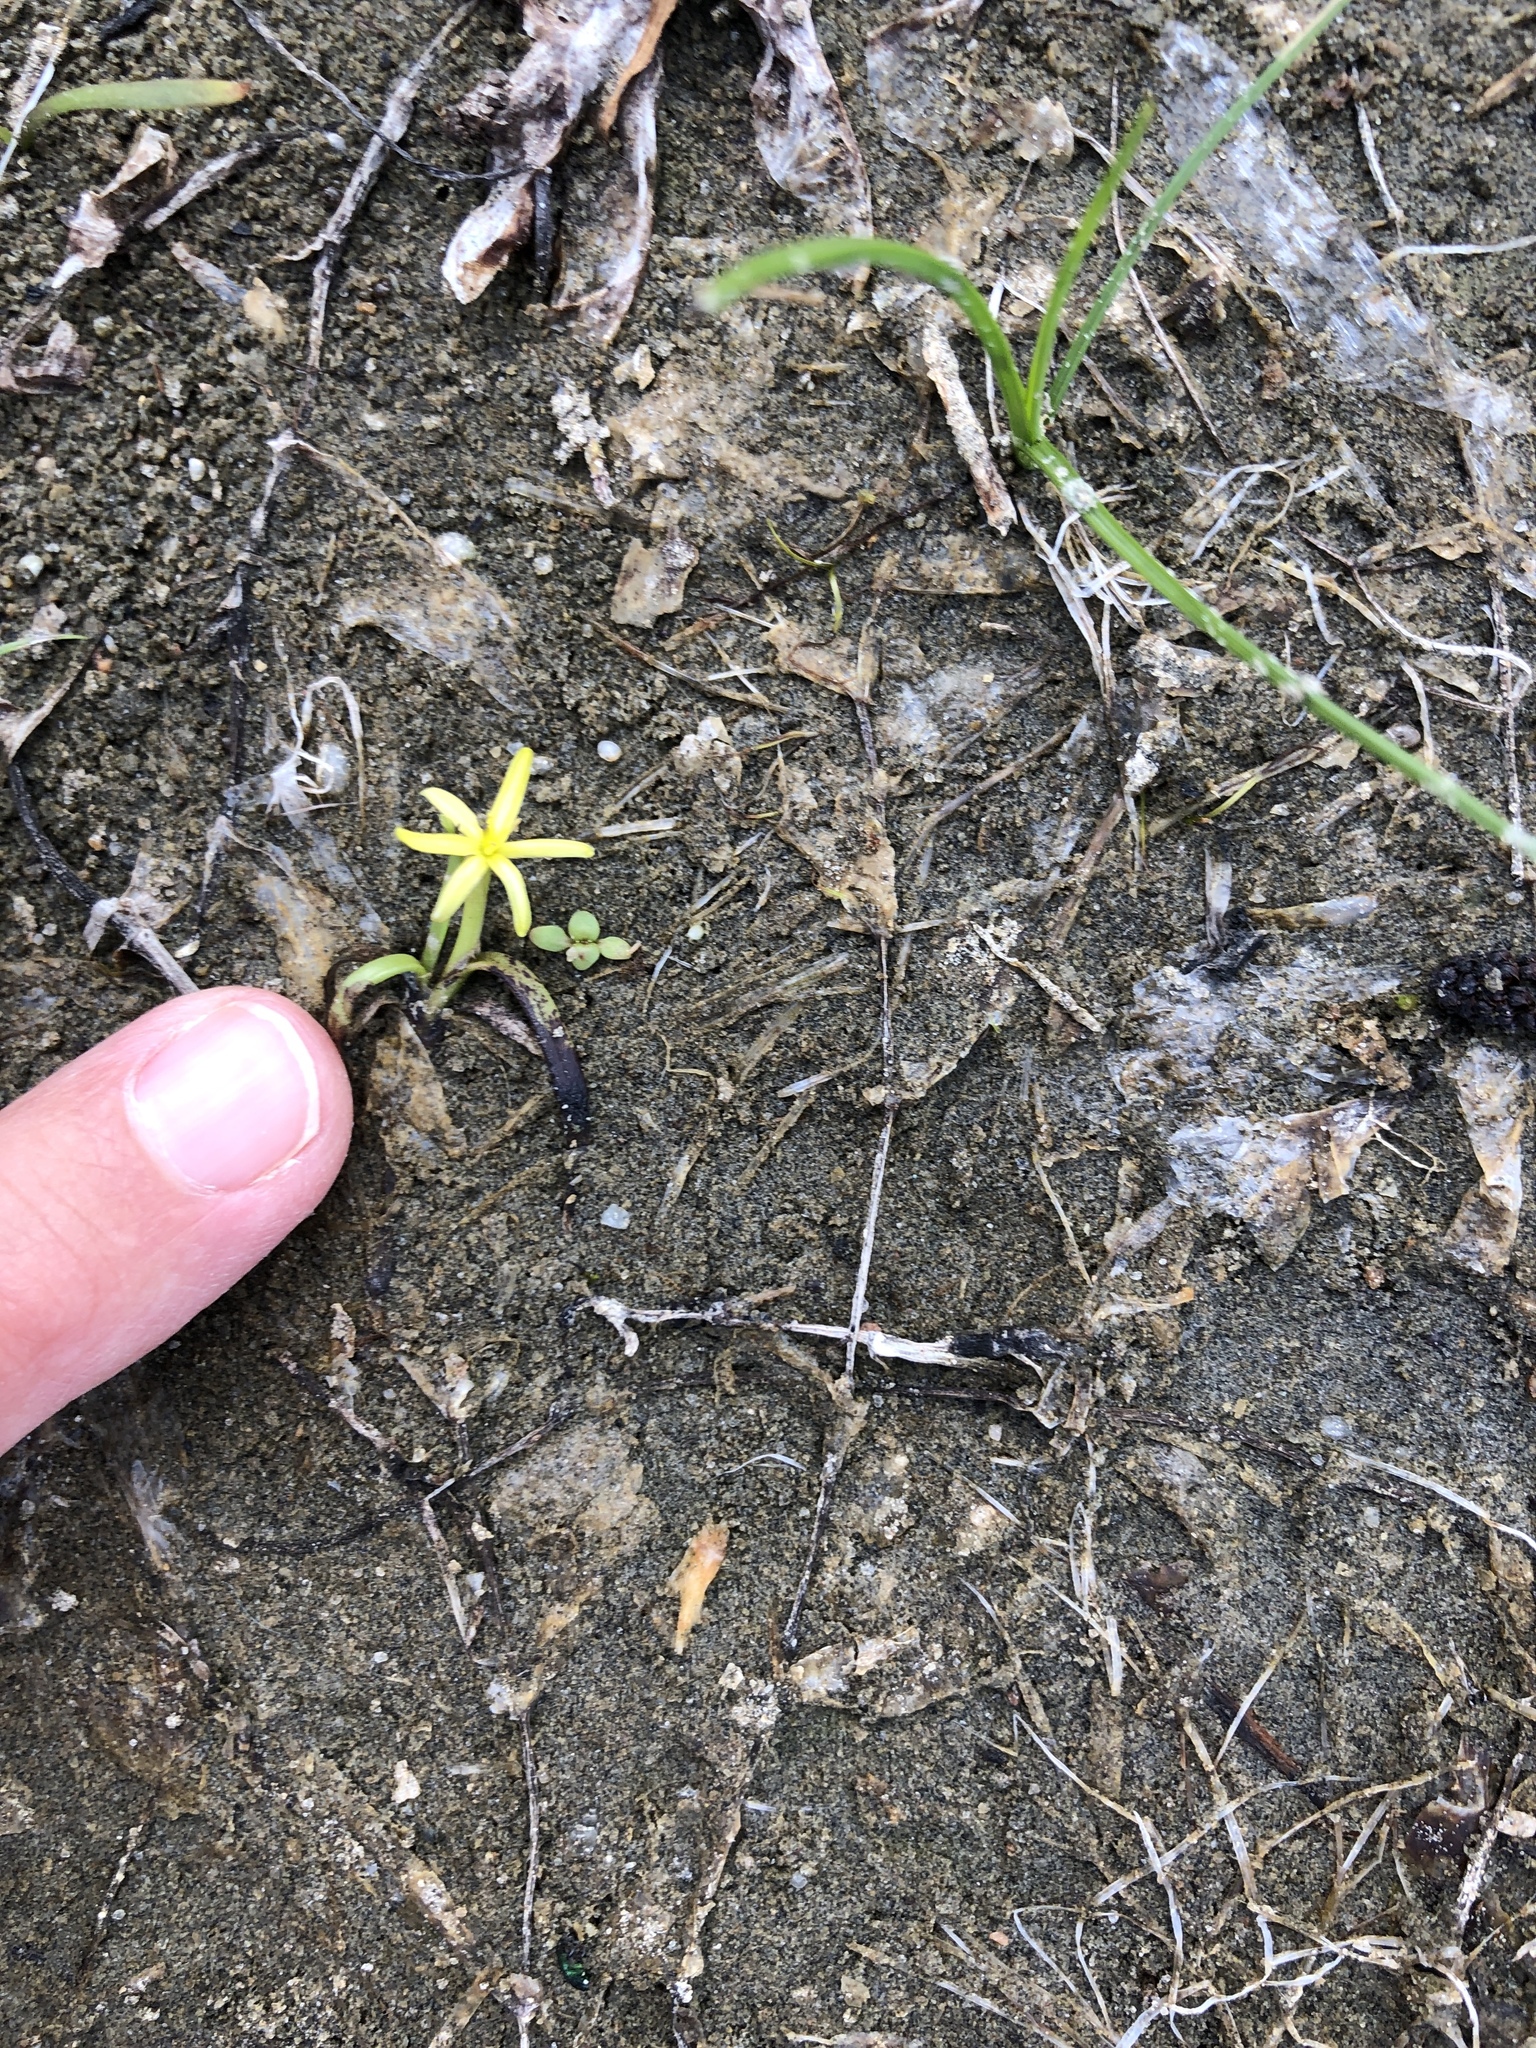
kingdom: Plantae
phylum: Tracheophyta
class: Liliopsida
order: Commelinales
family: Pontederiaceae
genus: Heteranthera
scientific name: Heteranthera dubia
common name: Grass-leaved mud plantain
